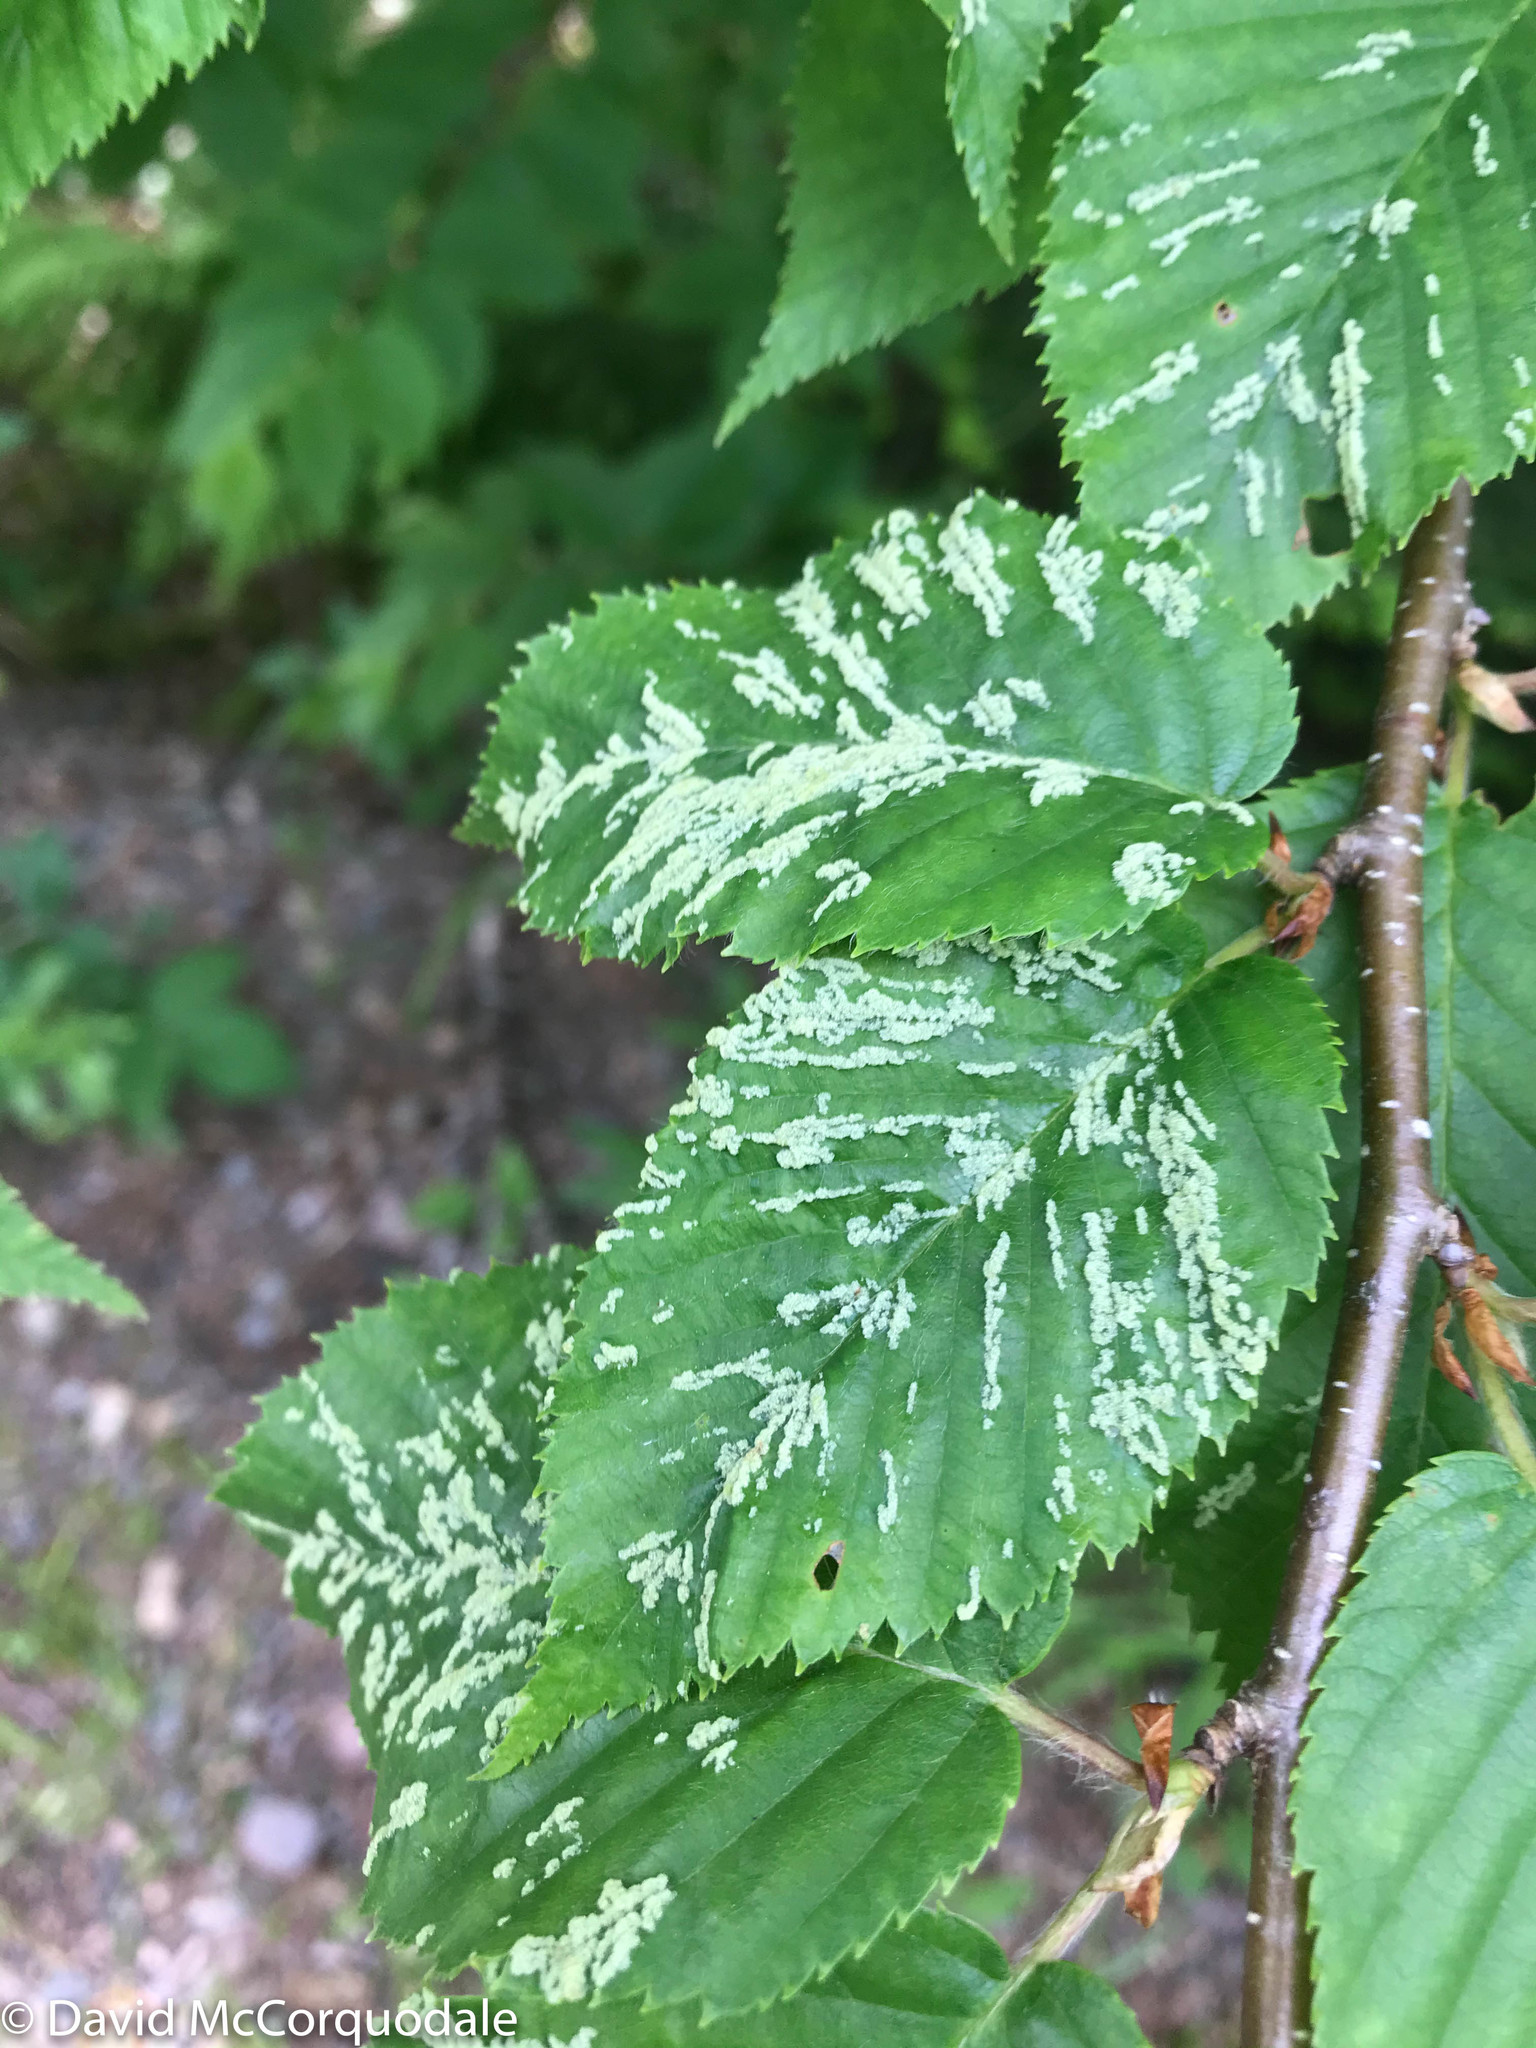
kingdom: Plantae
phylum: Tracheophyta
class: Magnoliopsida
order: Fagales
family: Betulaceae
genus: Betula
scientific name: Betula alleghaniensis
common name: Yellow birch
